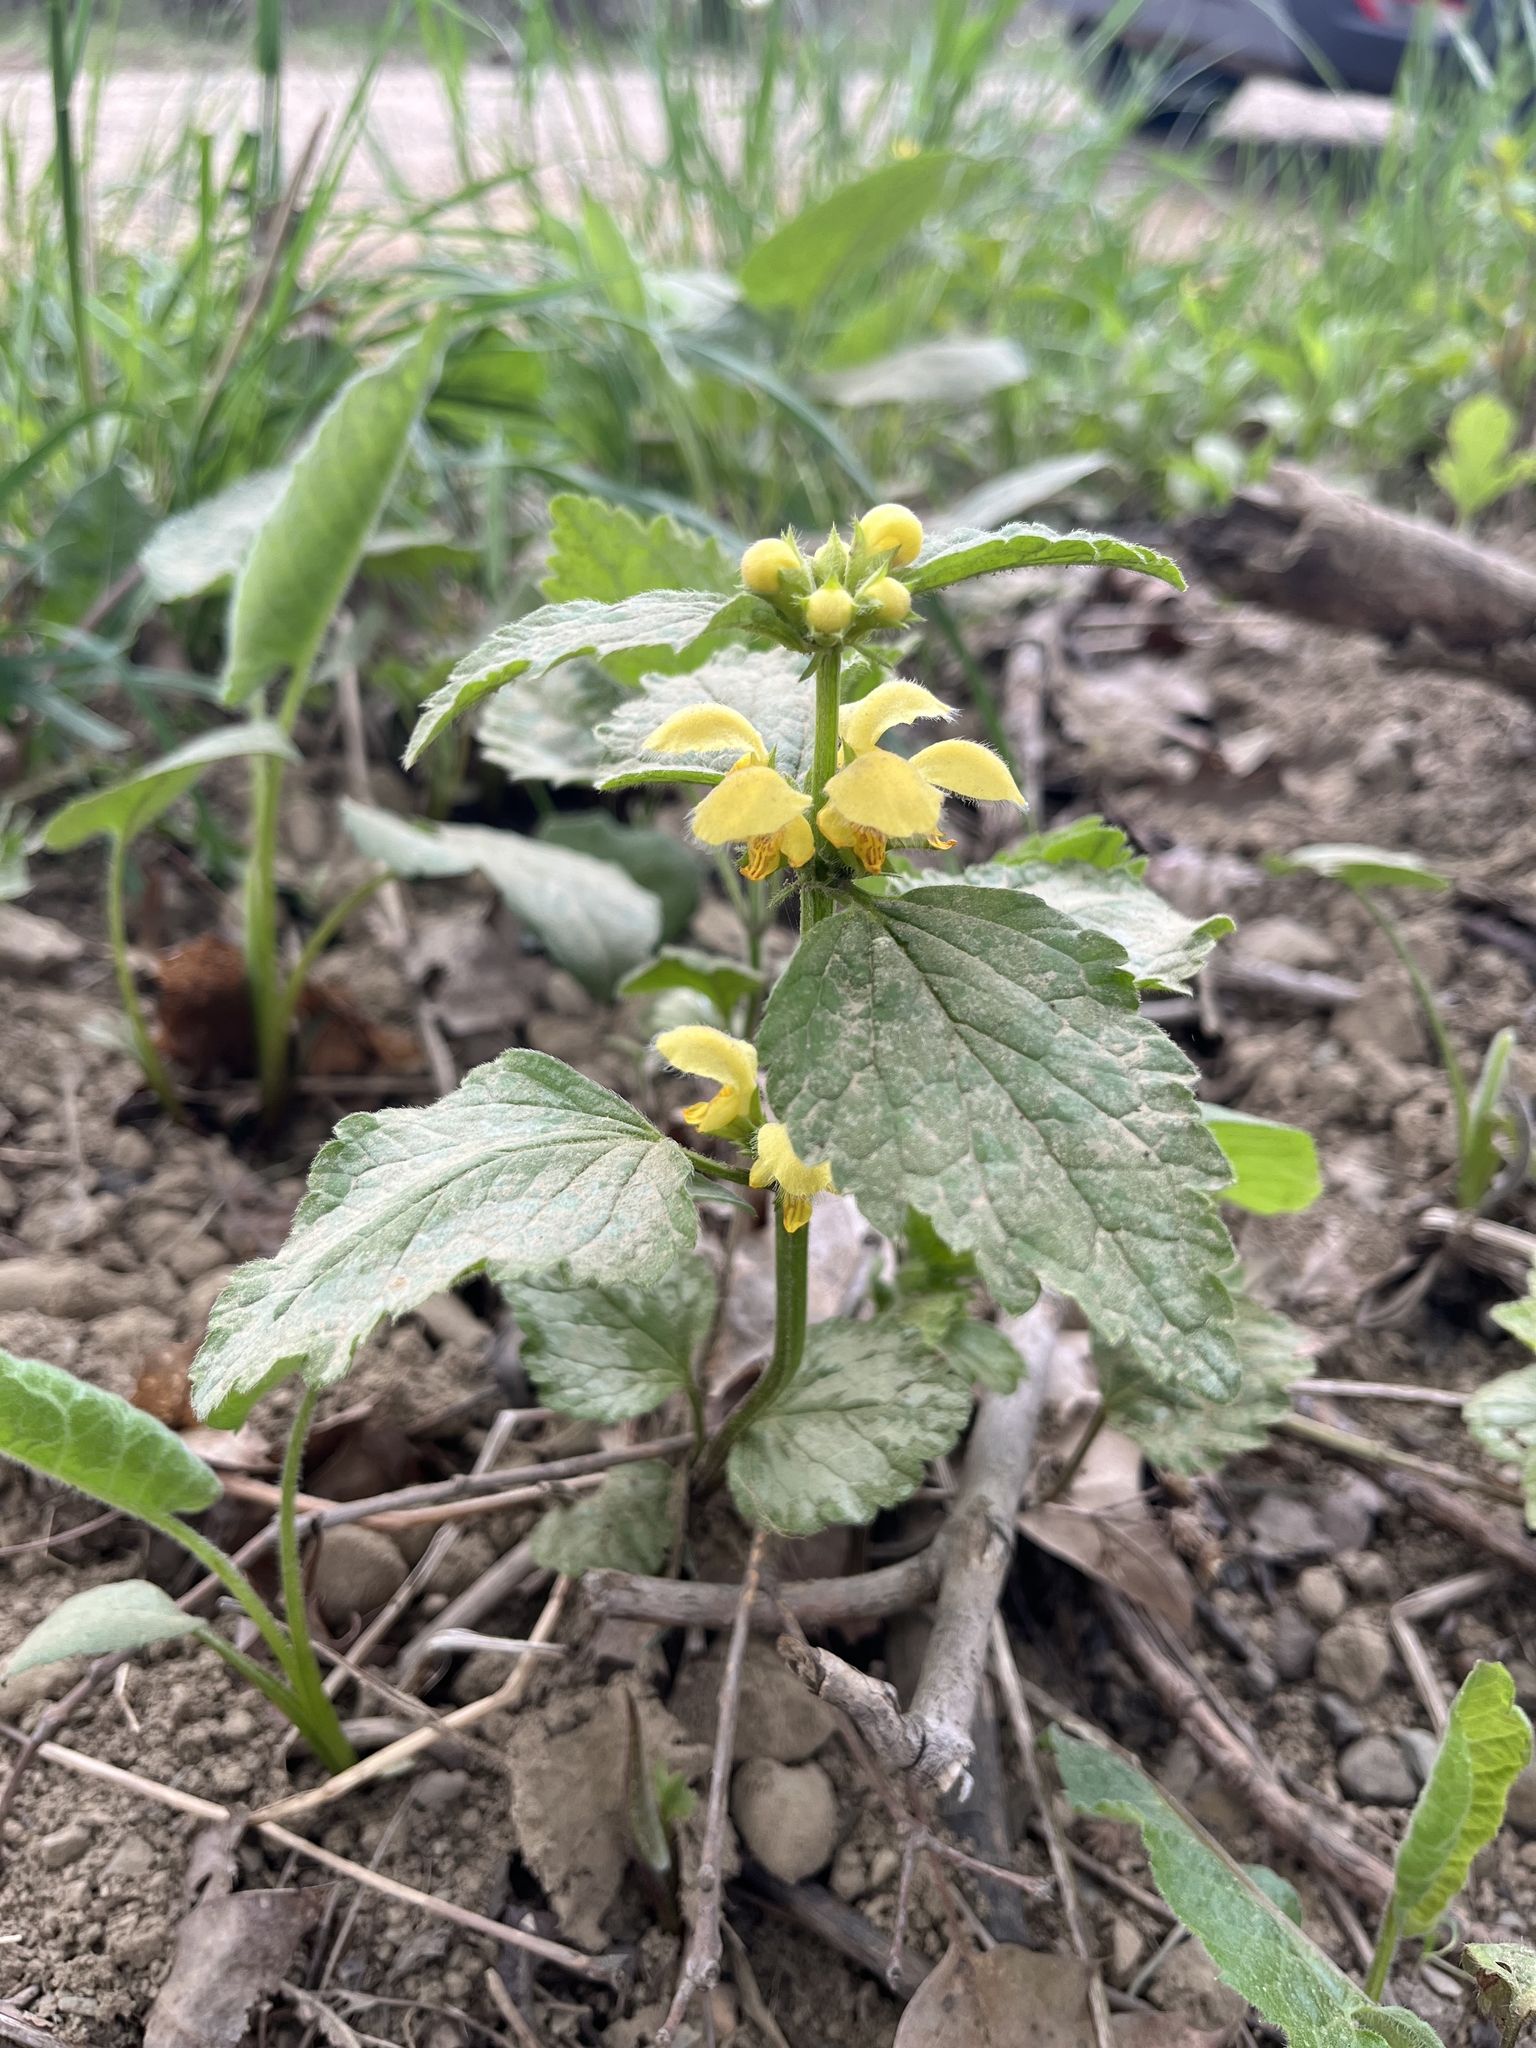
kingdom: Plantae
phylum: Tracheophyta
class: Magnoliopsida
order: Lamiales
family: Lamiaceae
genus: Lamium
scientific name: Lamium galeobdolon
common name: Yellow archangel
